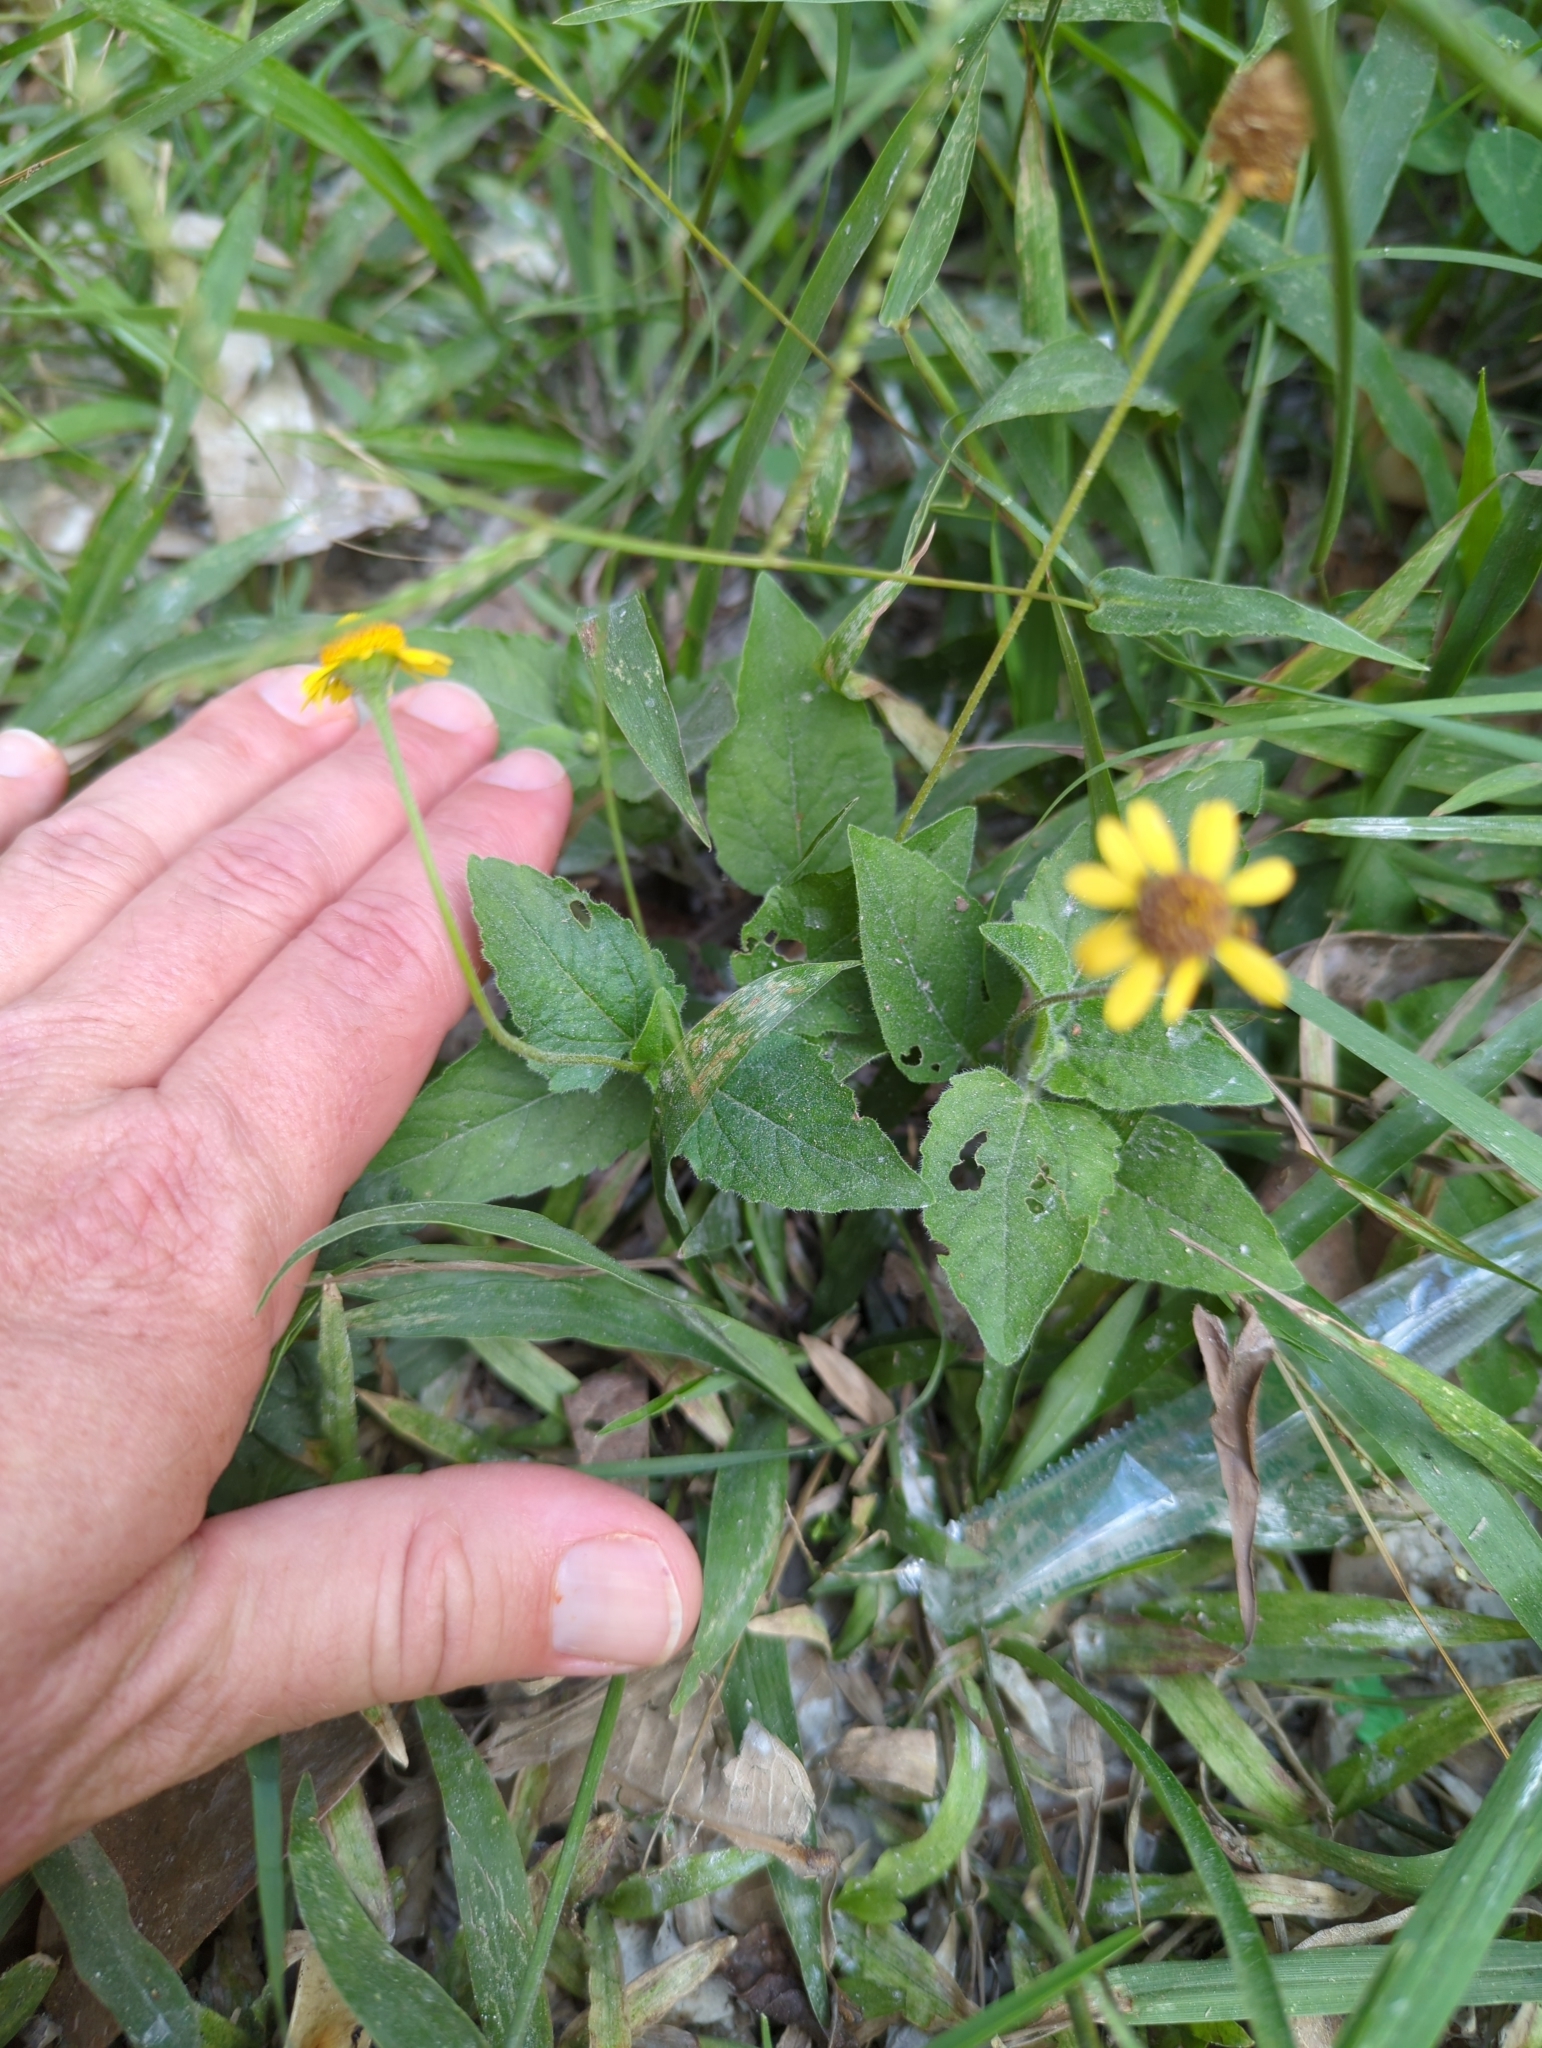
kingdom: Plantae
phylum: Tracheophyta
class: Magnoliopsida
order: Asterales
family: Asteraceae
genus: Acmella
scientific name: Acmella repens
